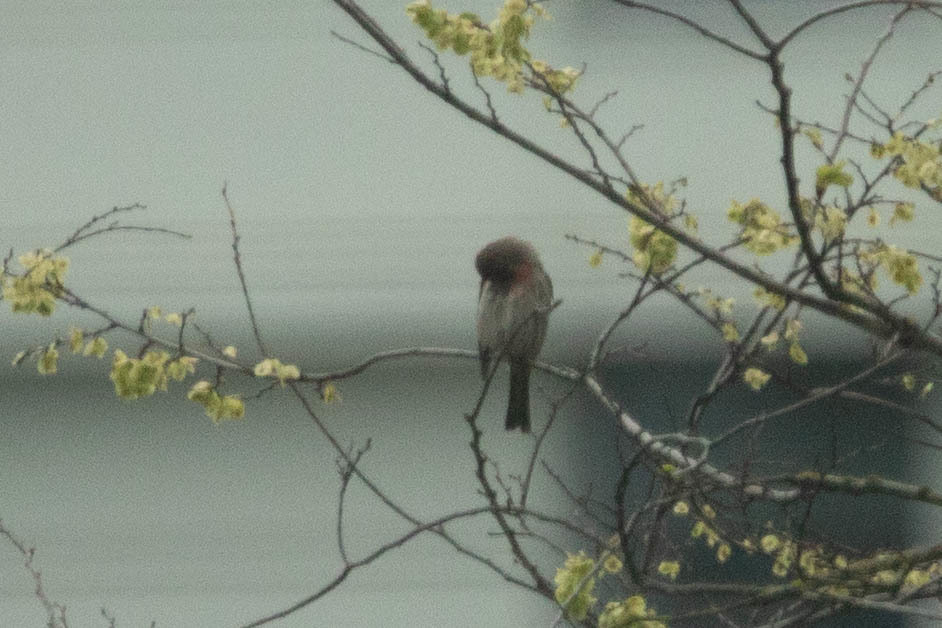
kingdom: Animalia
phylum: Chordata
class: Aves
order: Passeriformes
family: Fringillidae
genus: Haemorhous
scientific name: Haemorhous mexicanus
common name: House finch
